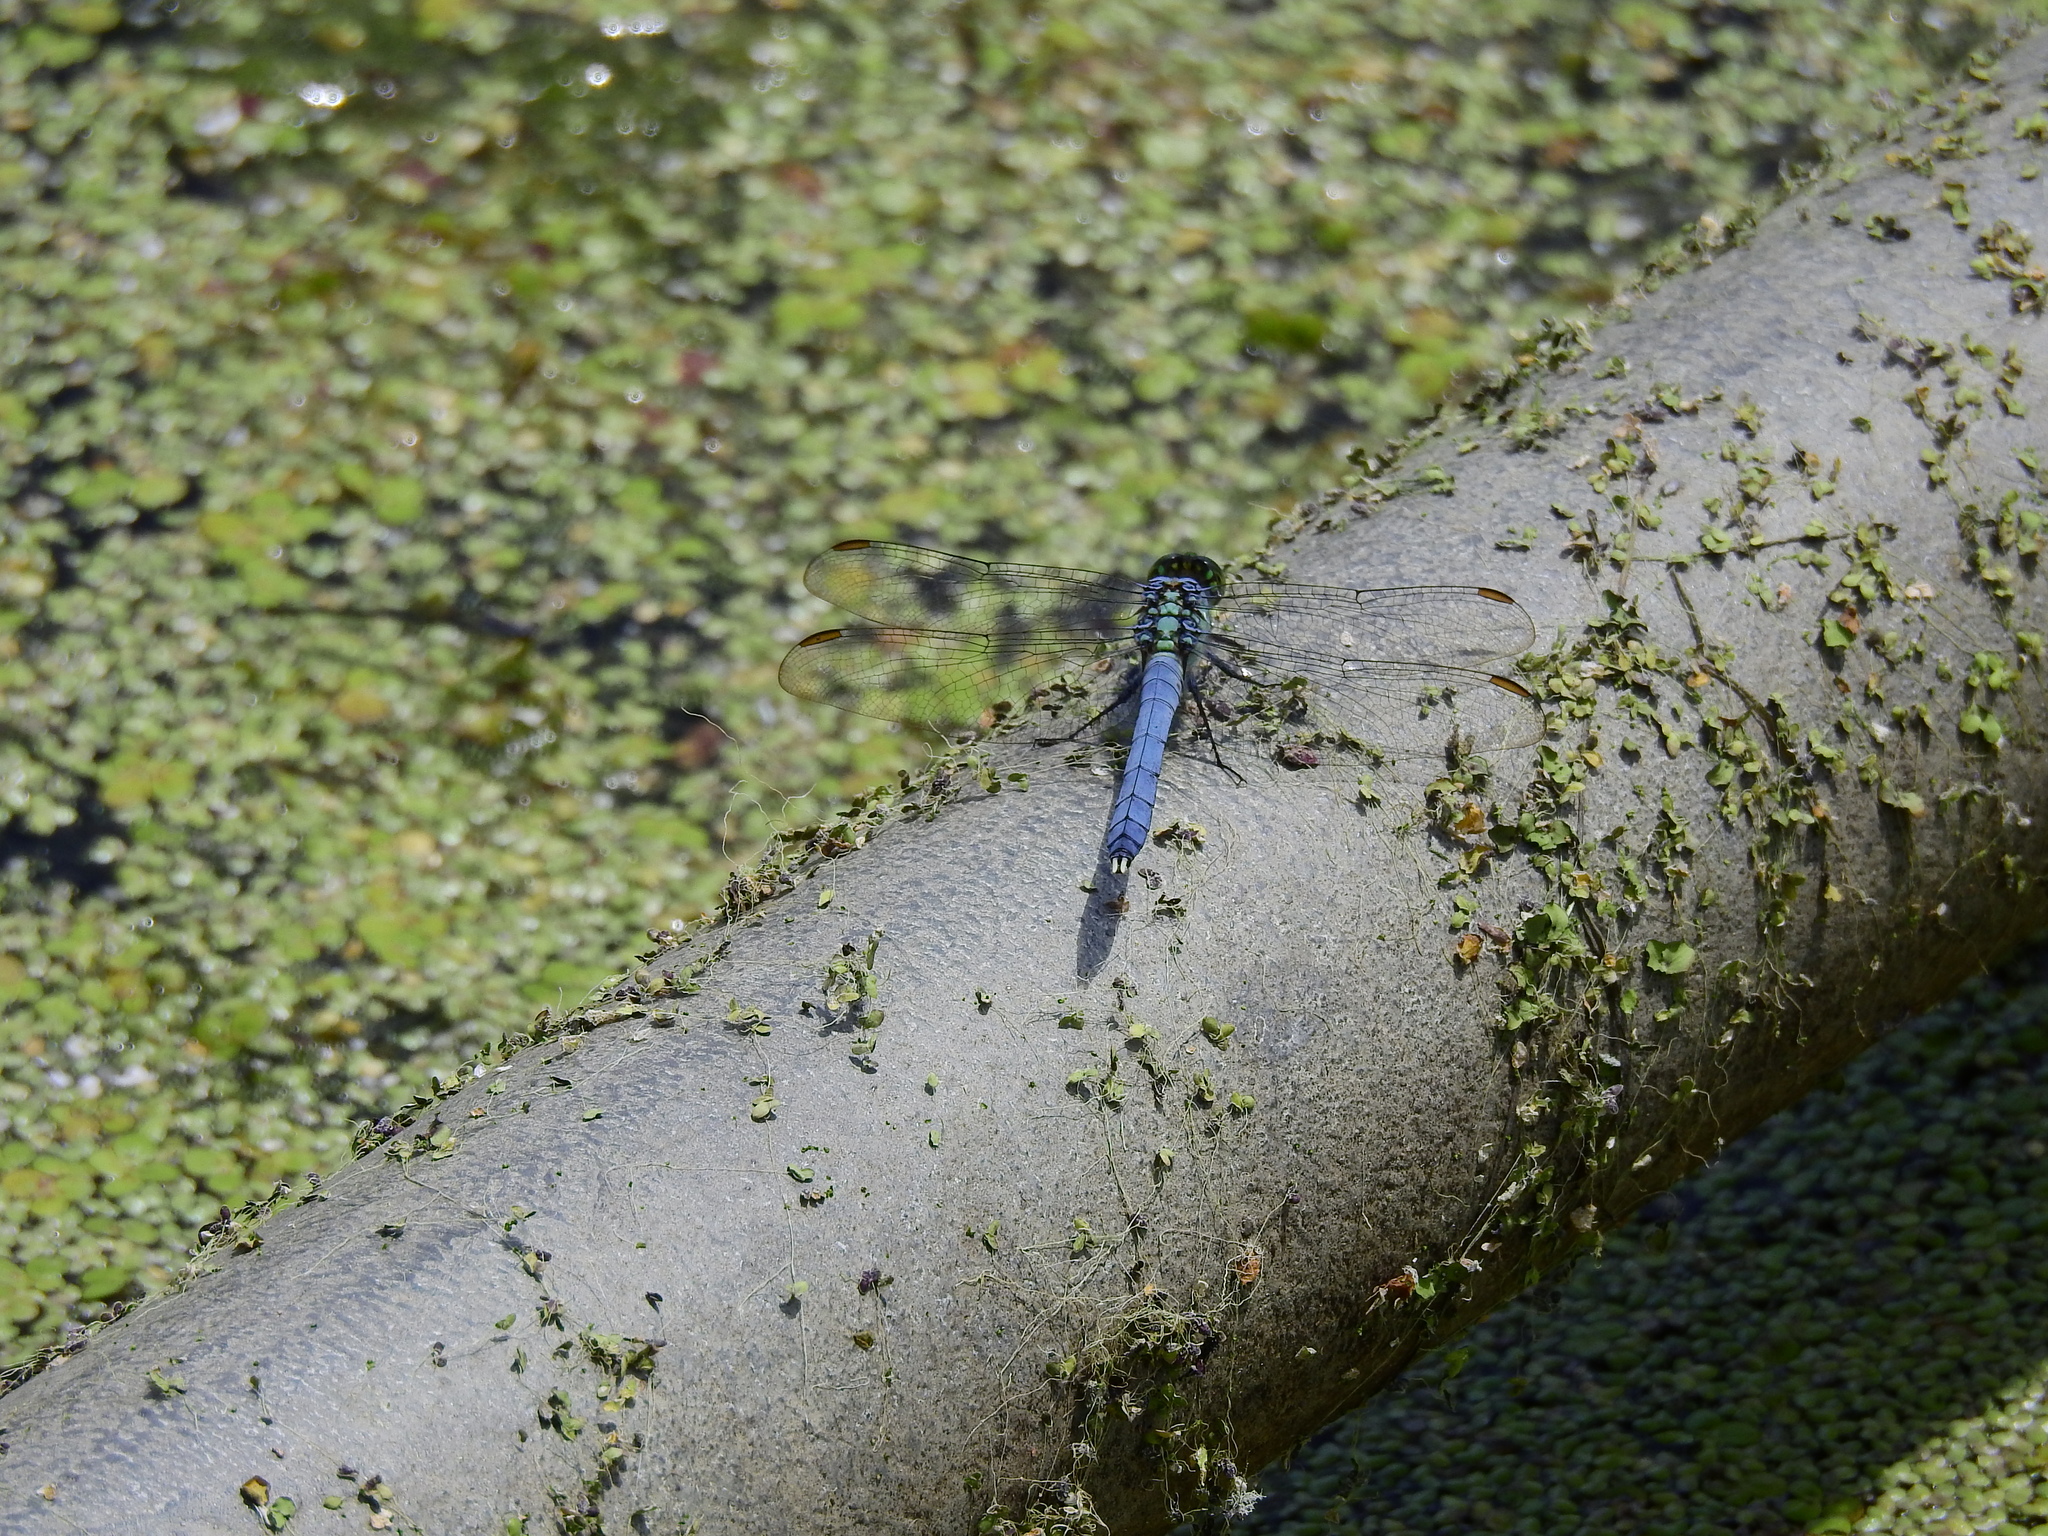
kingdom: Animalia
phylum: Arthropoda
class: Insecta
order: Odonata
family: Libellulidae
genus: Erythemis
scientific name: Erythemis simplicicollis
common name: Eastern pondhawk
